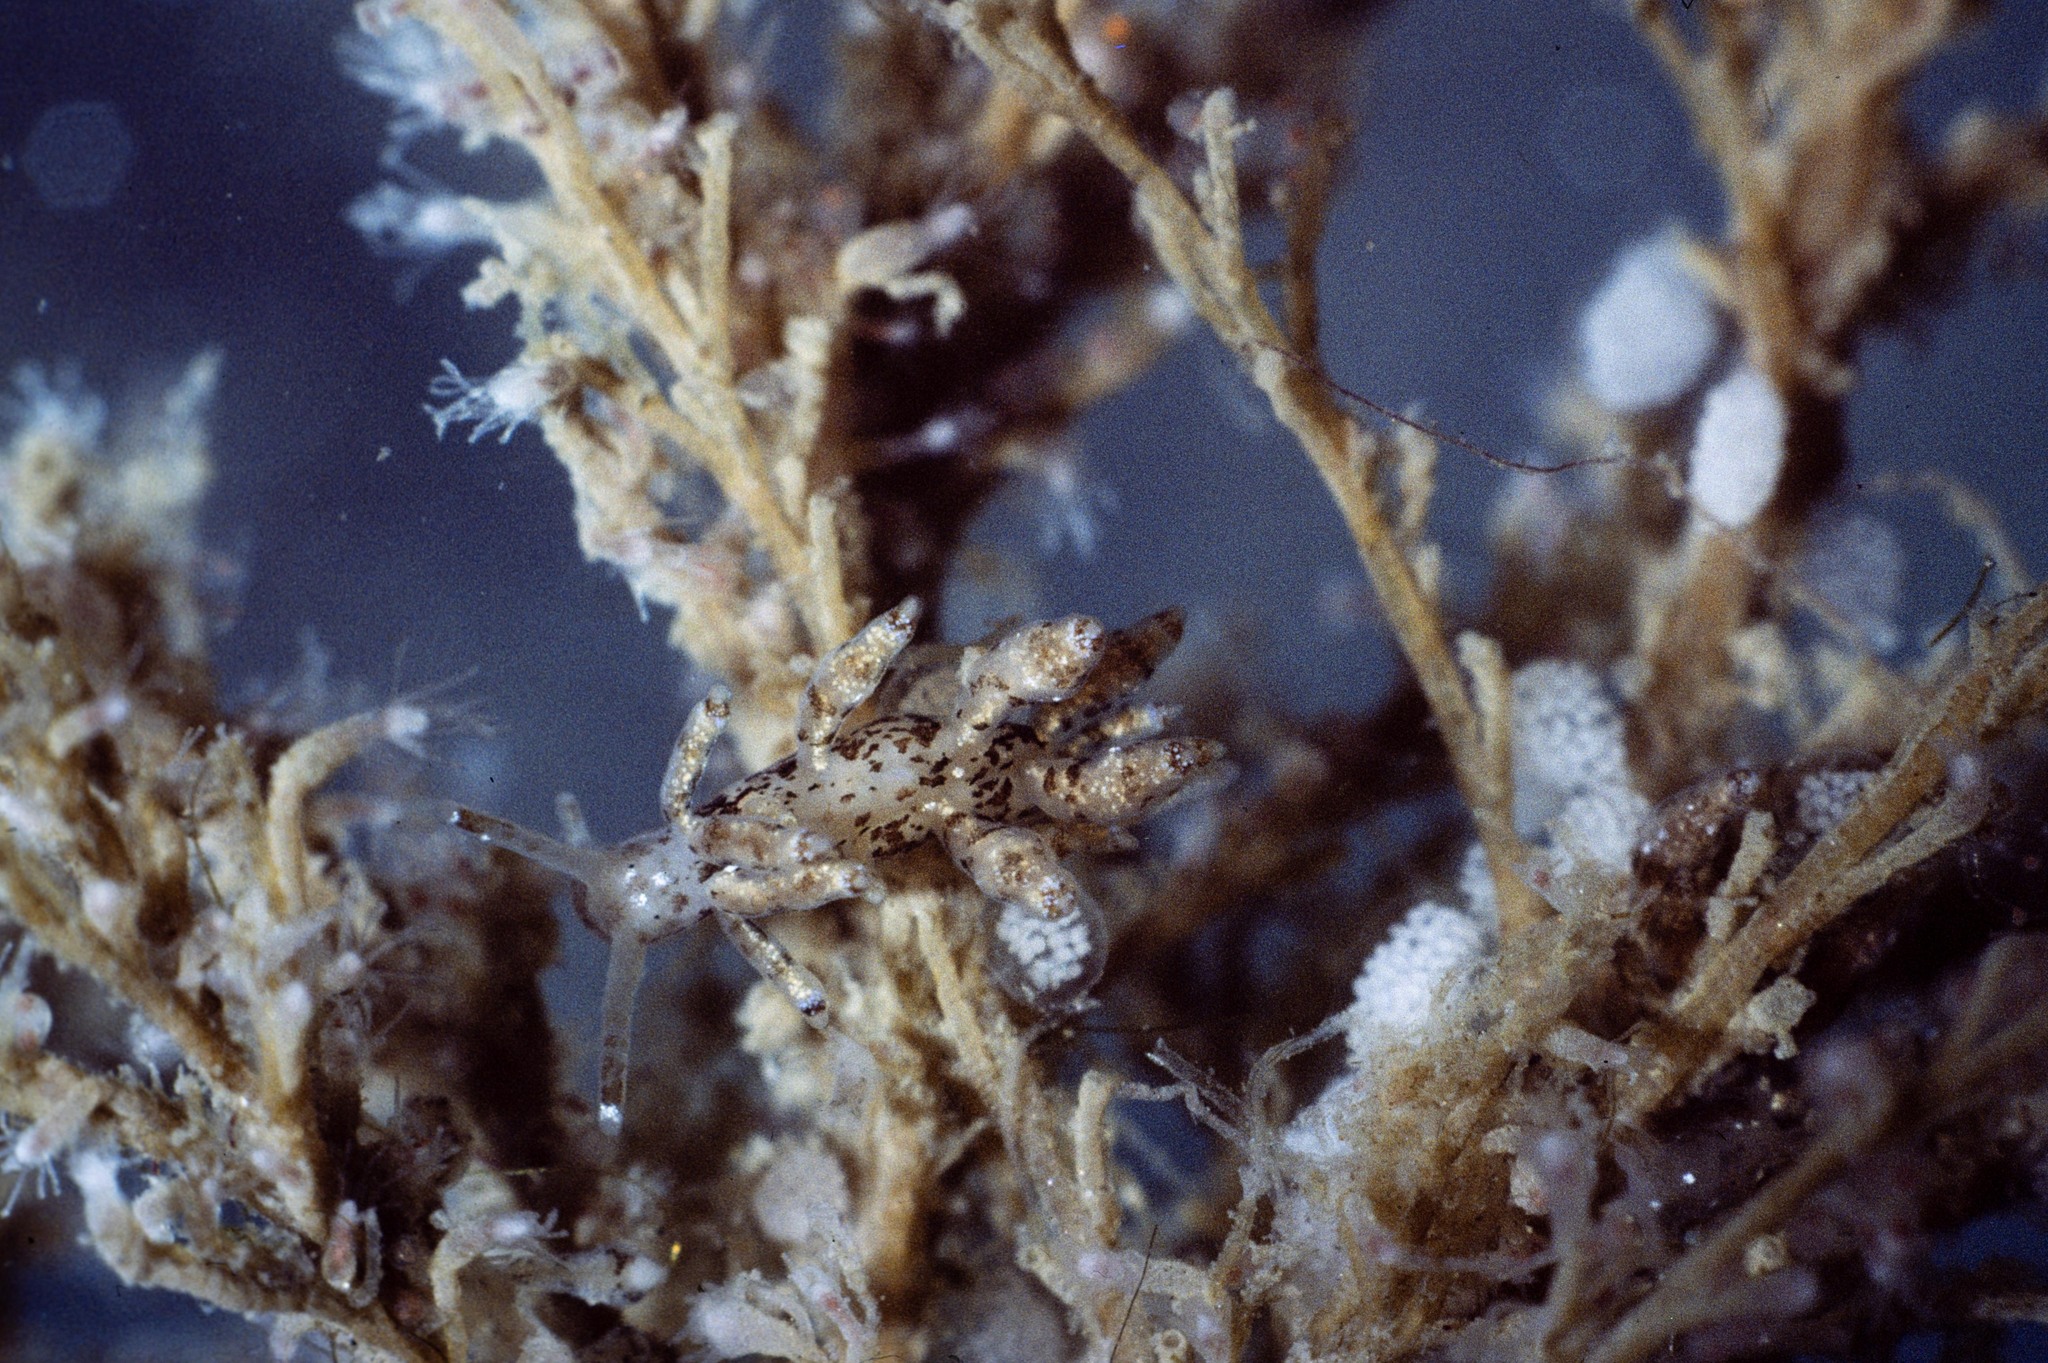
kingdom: Animalia
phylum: Mollusca
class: Gastropoda
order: Nudibranchia
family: Eubranchidae
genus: Eubranchus
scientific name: Eubranchus exiguus
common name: Balloon aeolis
